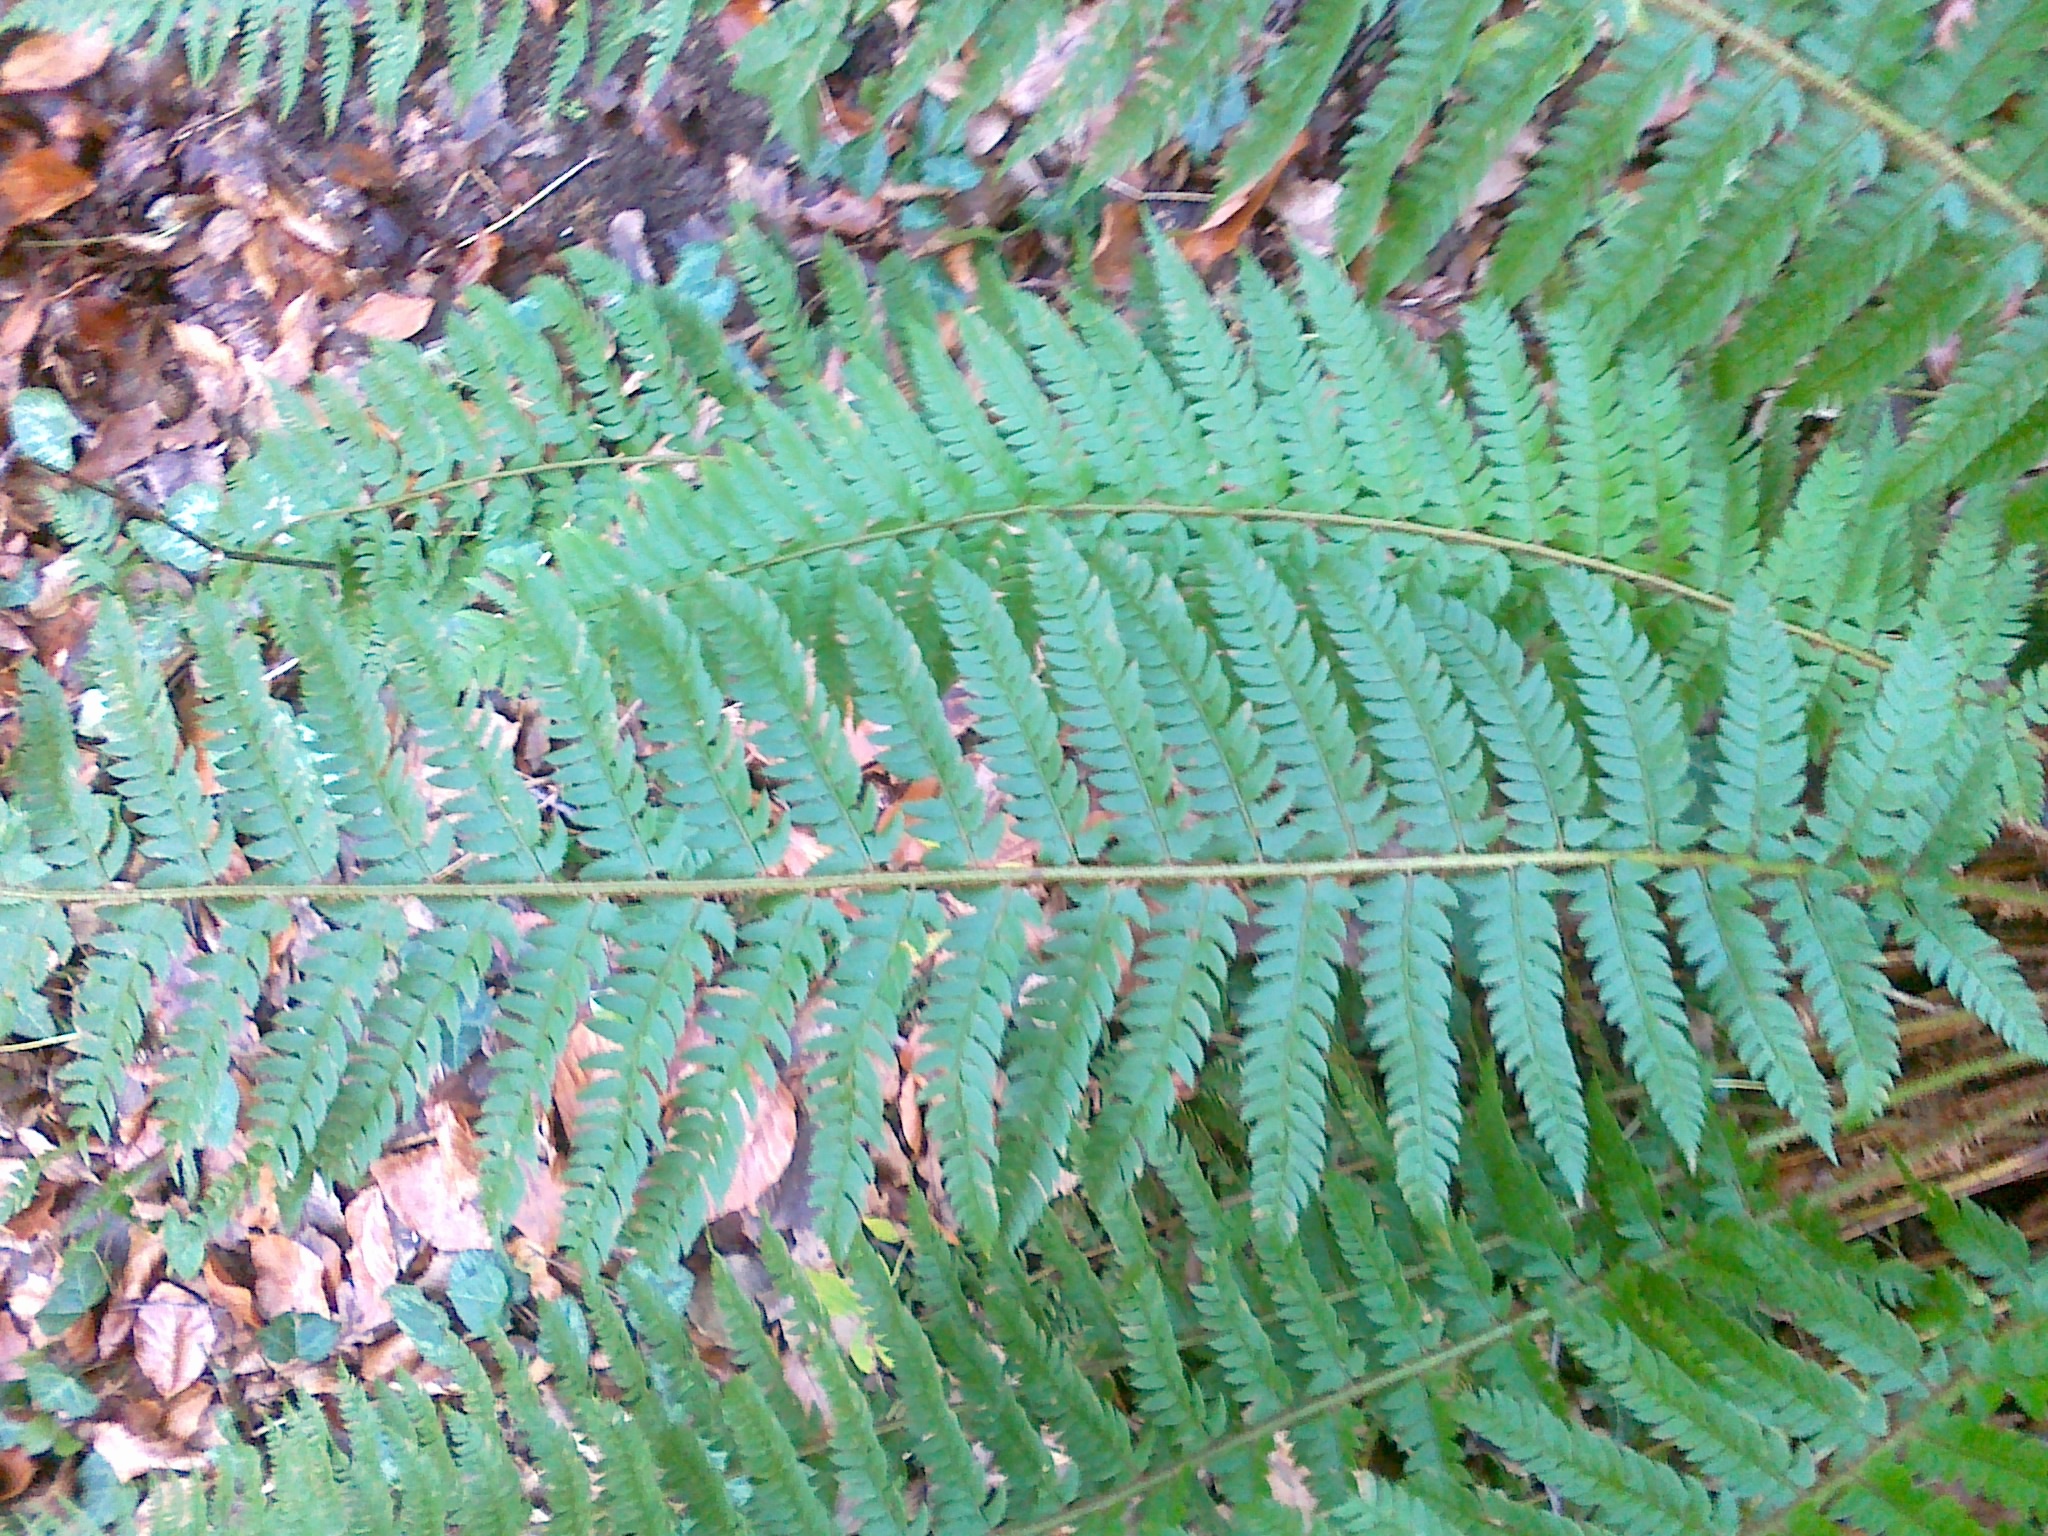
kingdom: Plantae
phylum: Tracheophyta
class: Polypodiopsida
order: Polypodiales
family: Dryopteridaceae
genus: Polystichum
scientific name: Polystichum aculeatum
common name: Hard shield-fern
